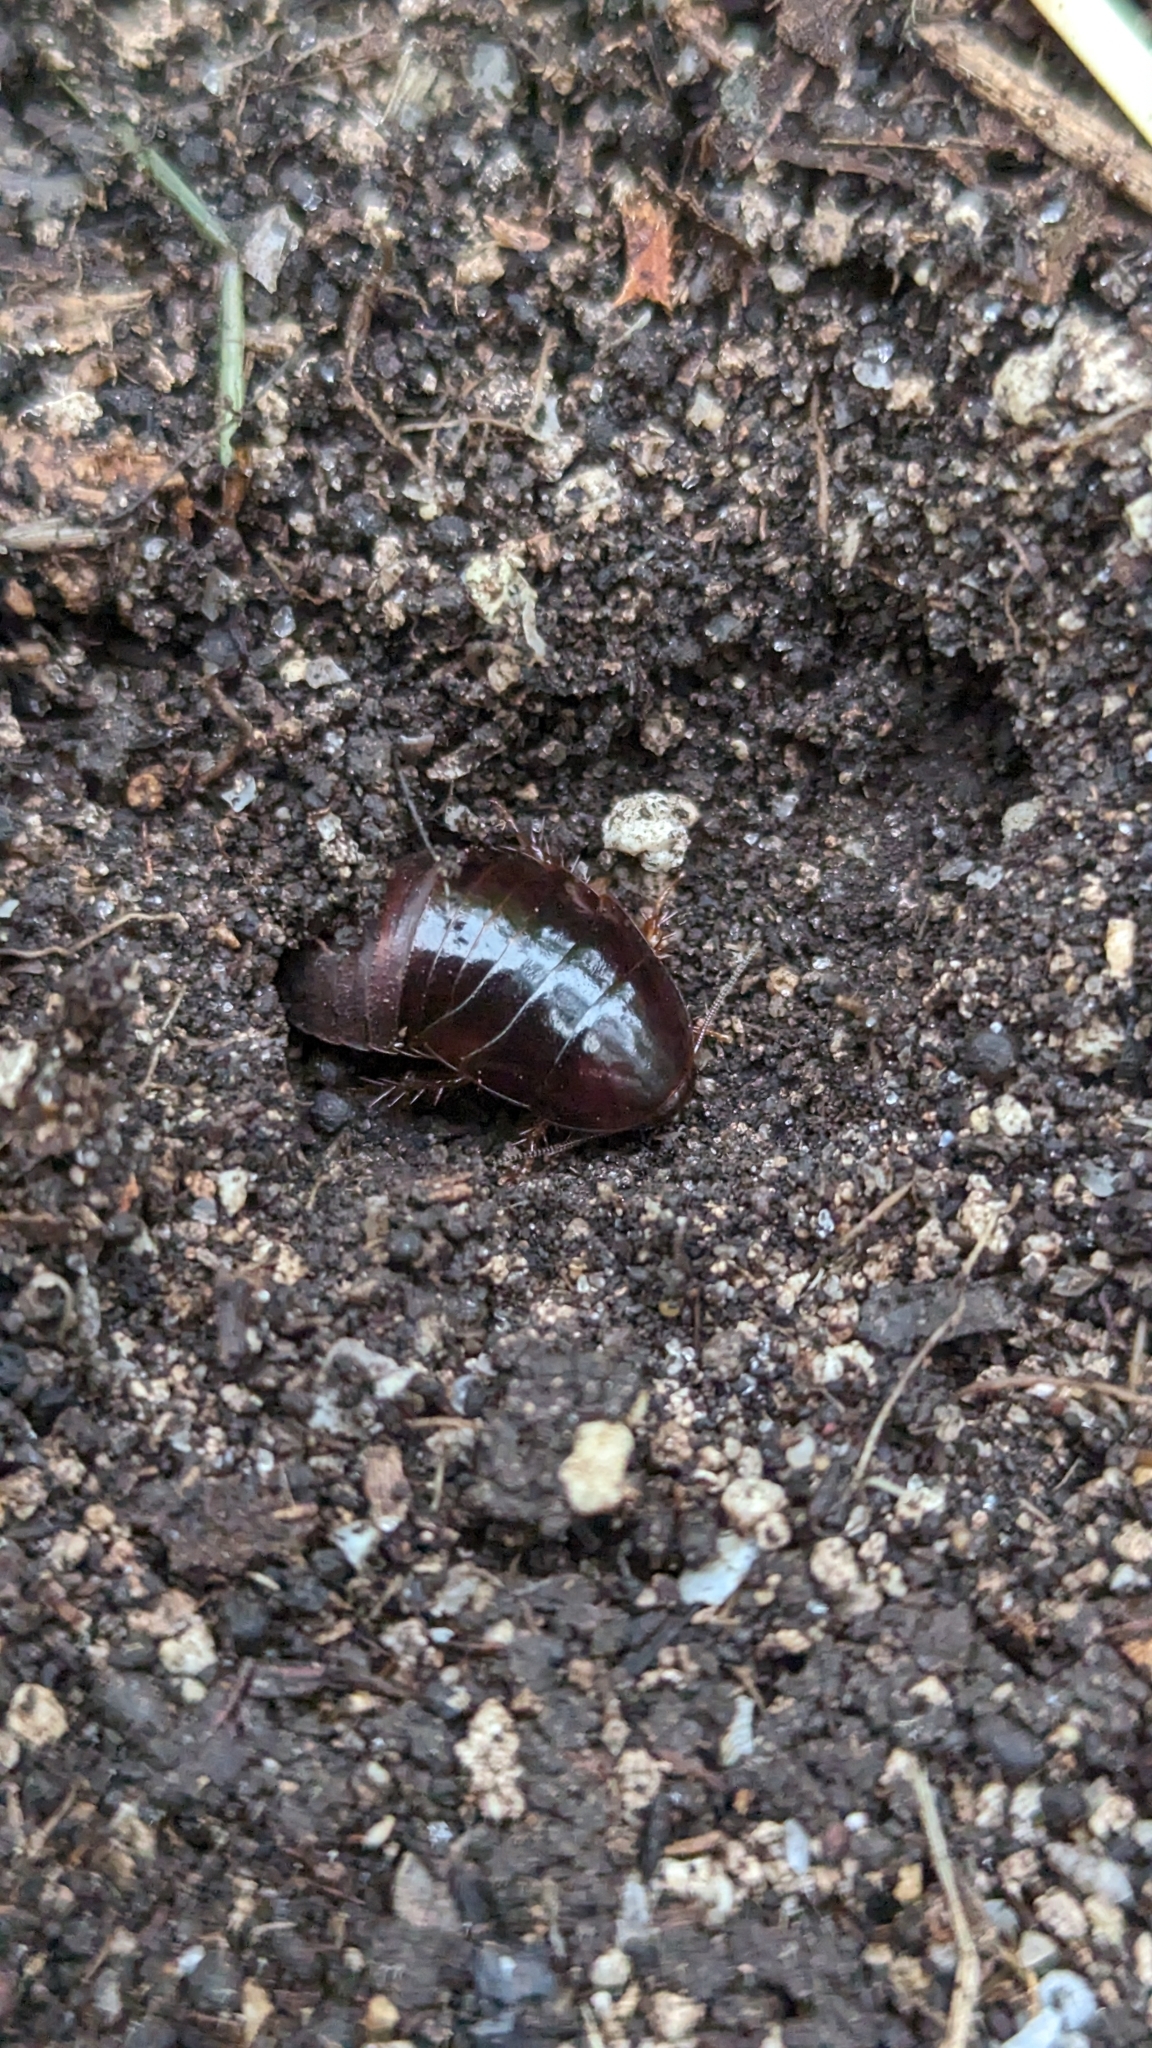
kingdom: Animalia
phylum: Arthropoda
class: Insecta
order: Blattodea
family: Blaberidae
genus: Pycnoscelus
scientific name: Pycnoscelus surinamensis
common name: Surinam cockroach
